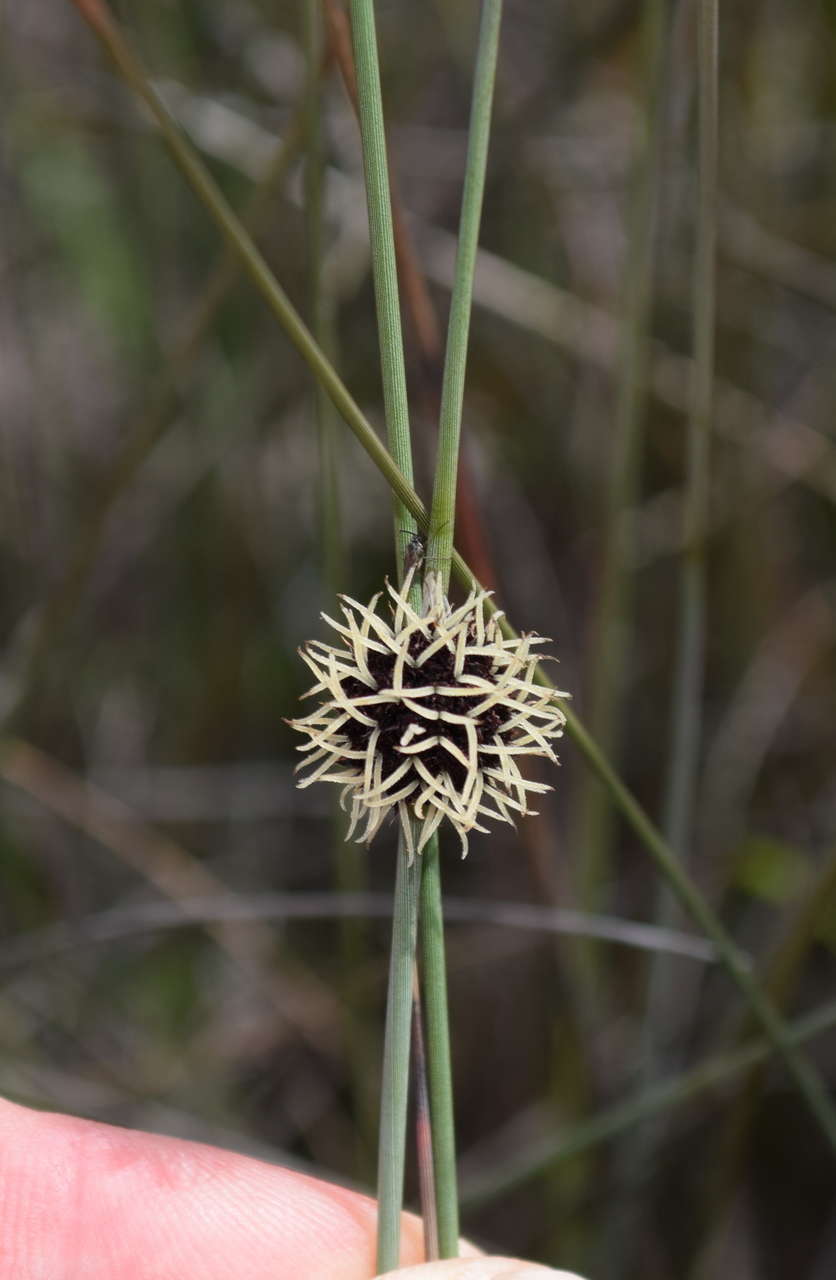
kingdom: Plantae
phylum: Tracheophyta
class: Liliopsida
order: Poales
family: Cyperaceae
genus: Chorizandra
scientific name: Chorizandra enodis
